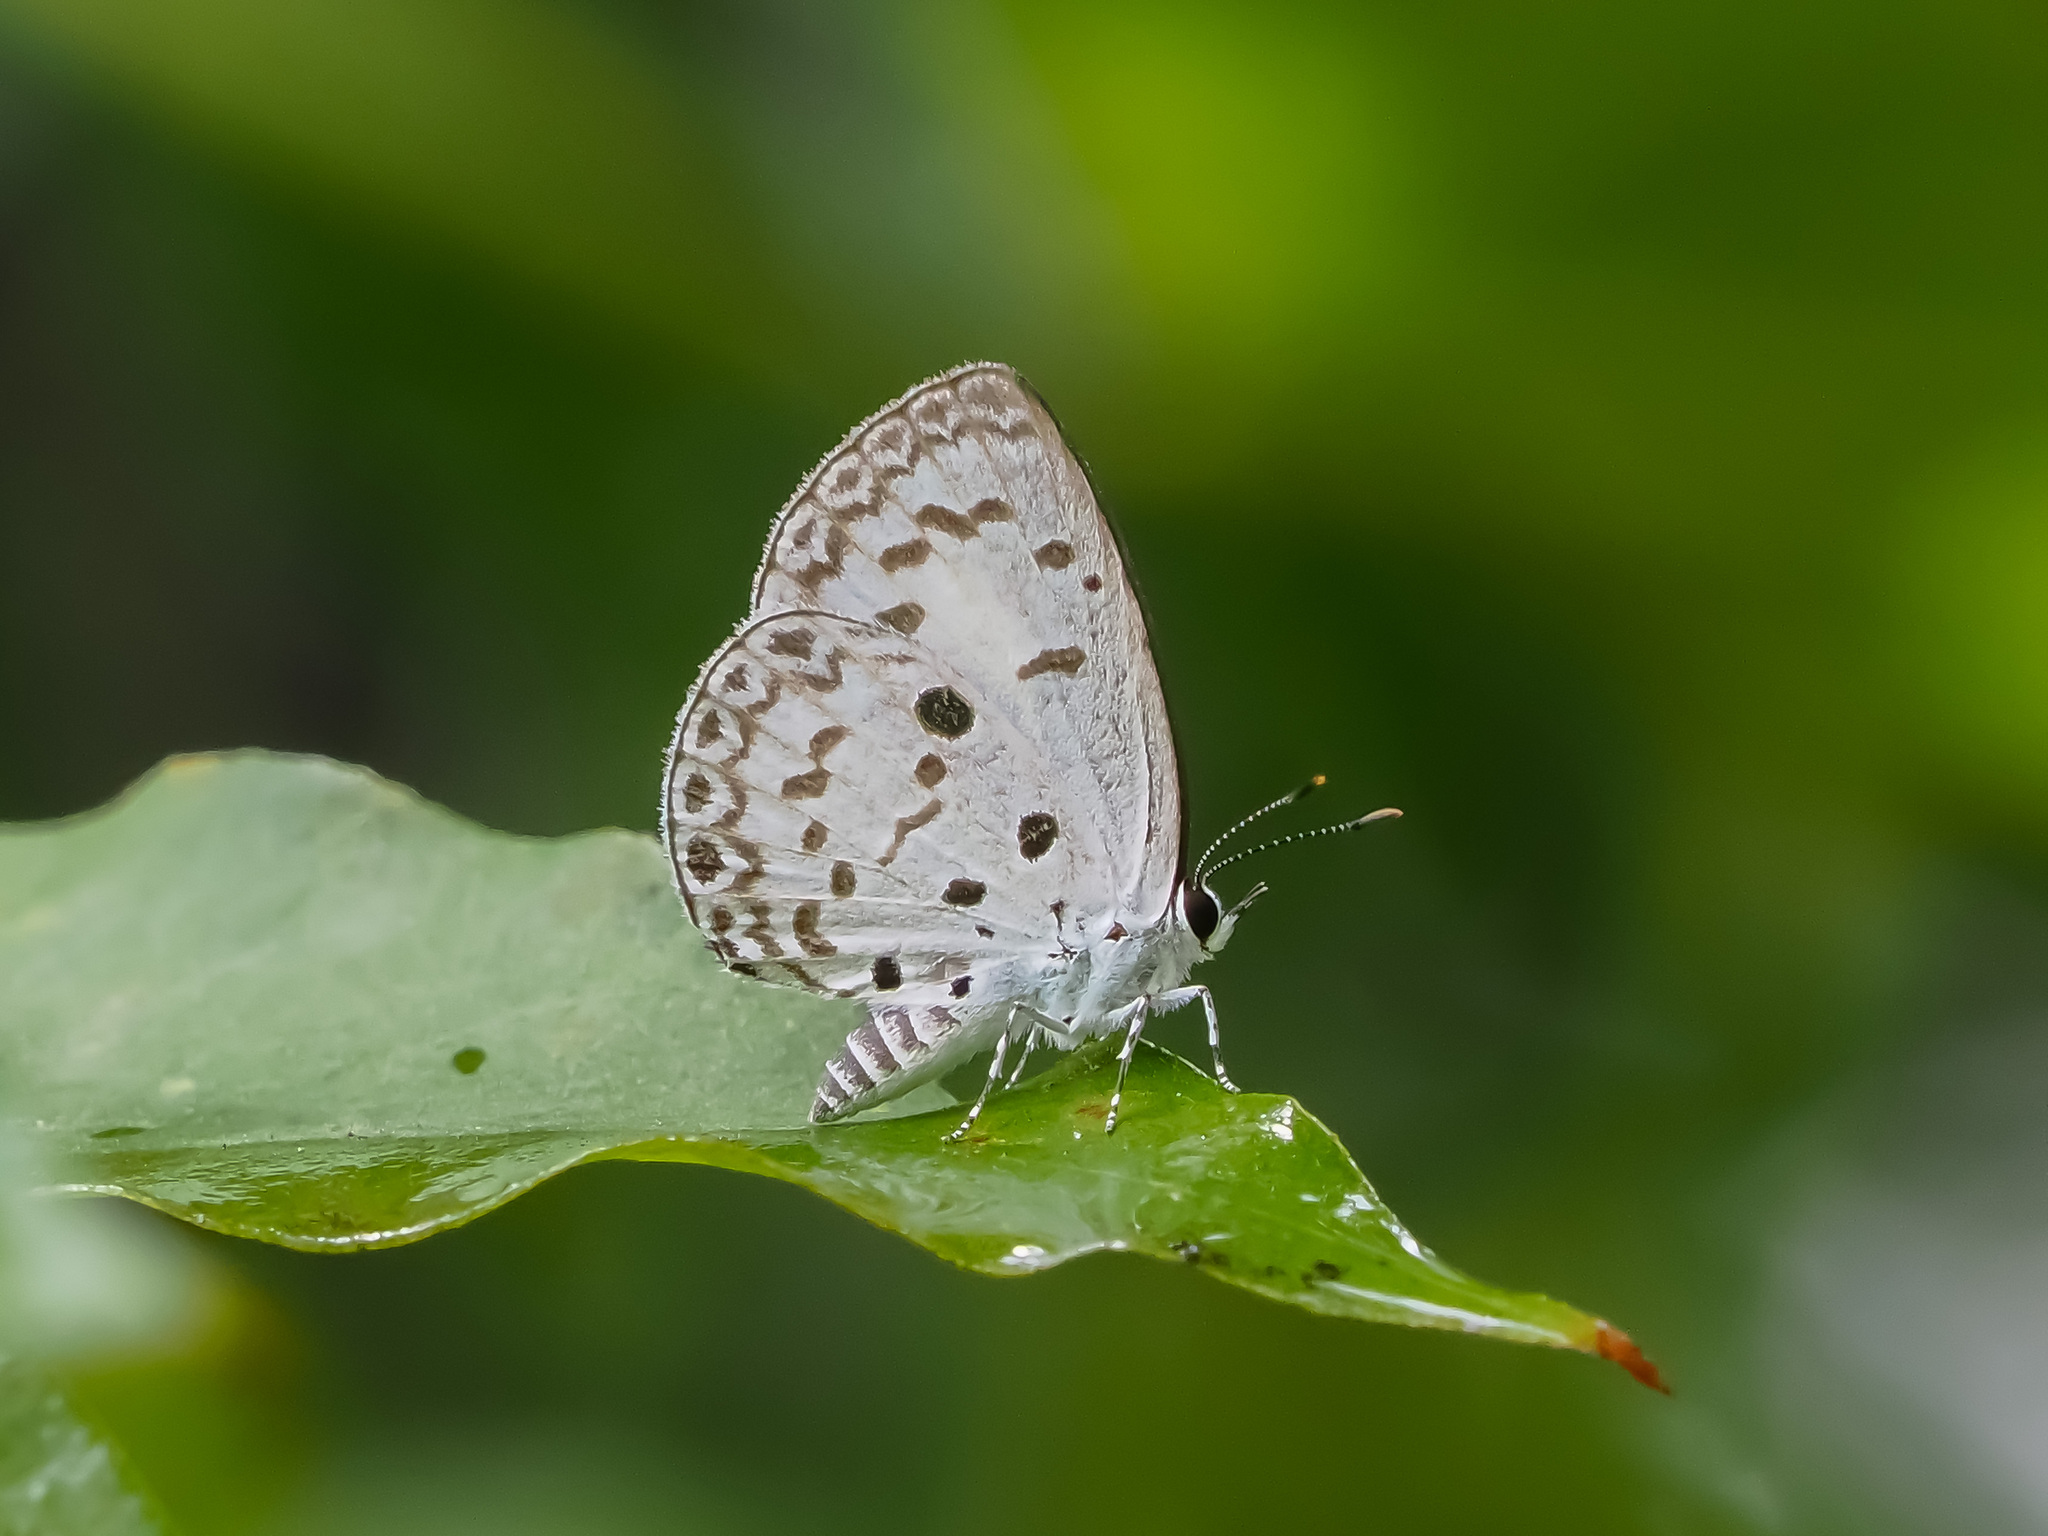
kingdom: Animalia
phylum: Arthropoda
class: Insecta
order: Lepidoptera
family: Lycaenidae
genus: Acytolepis
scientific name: Acytolepis puspa
